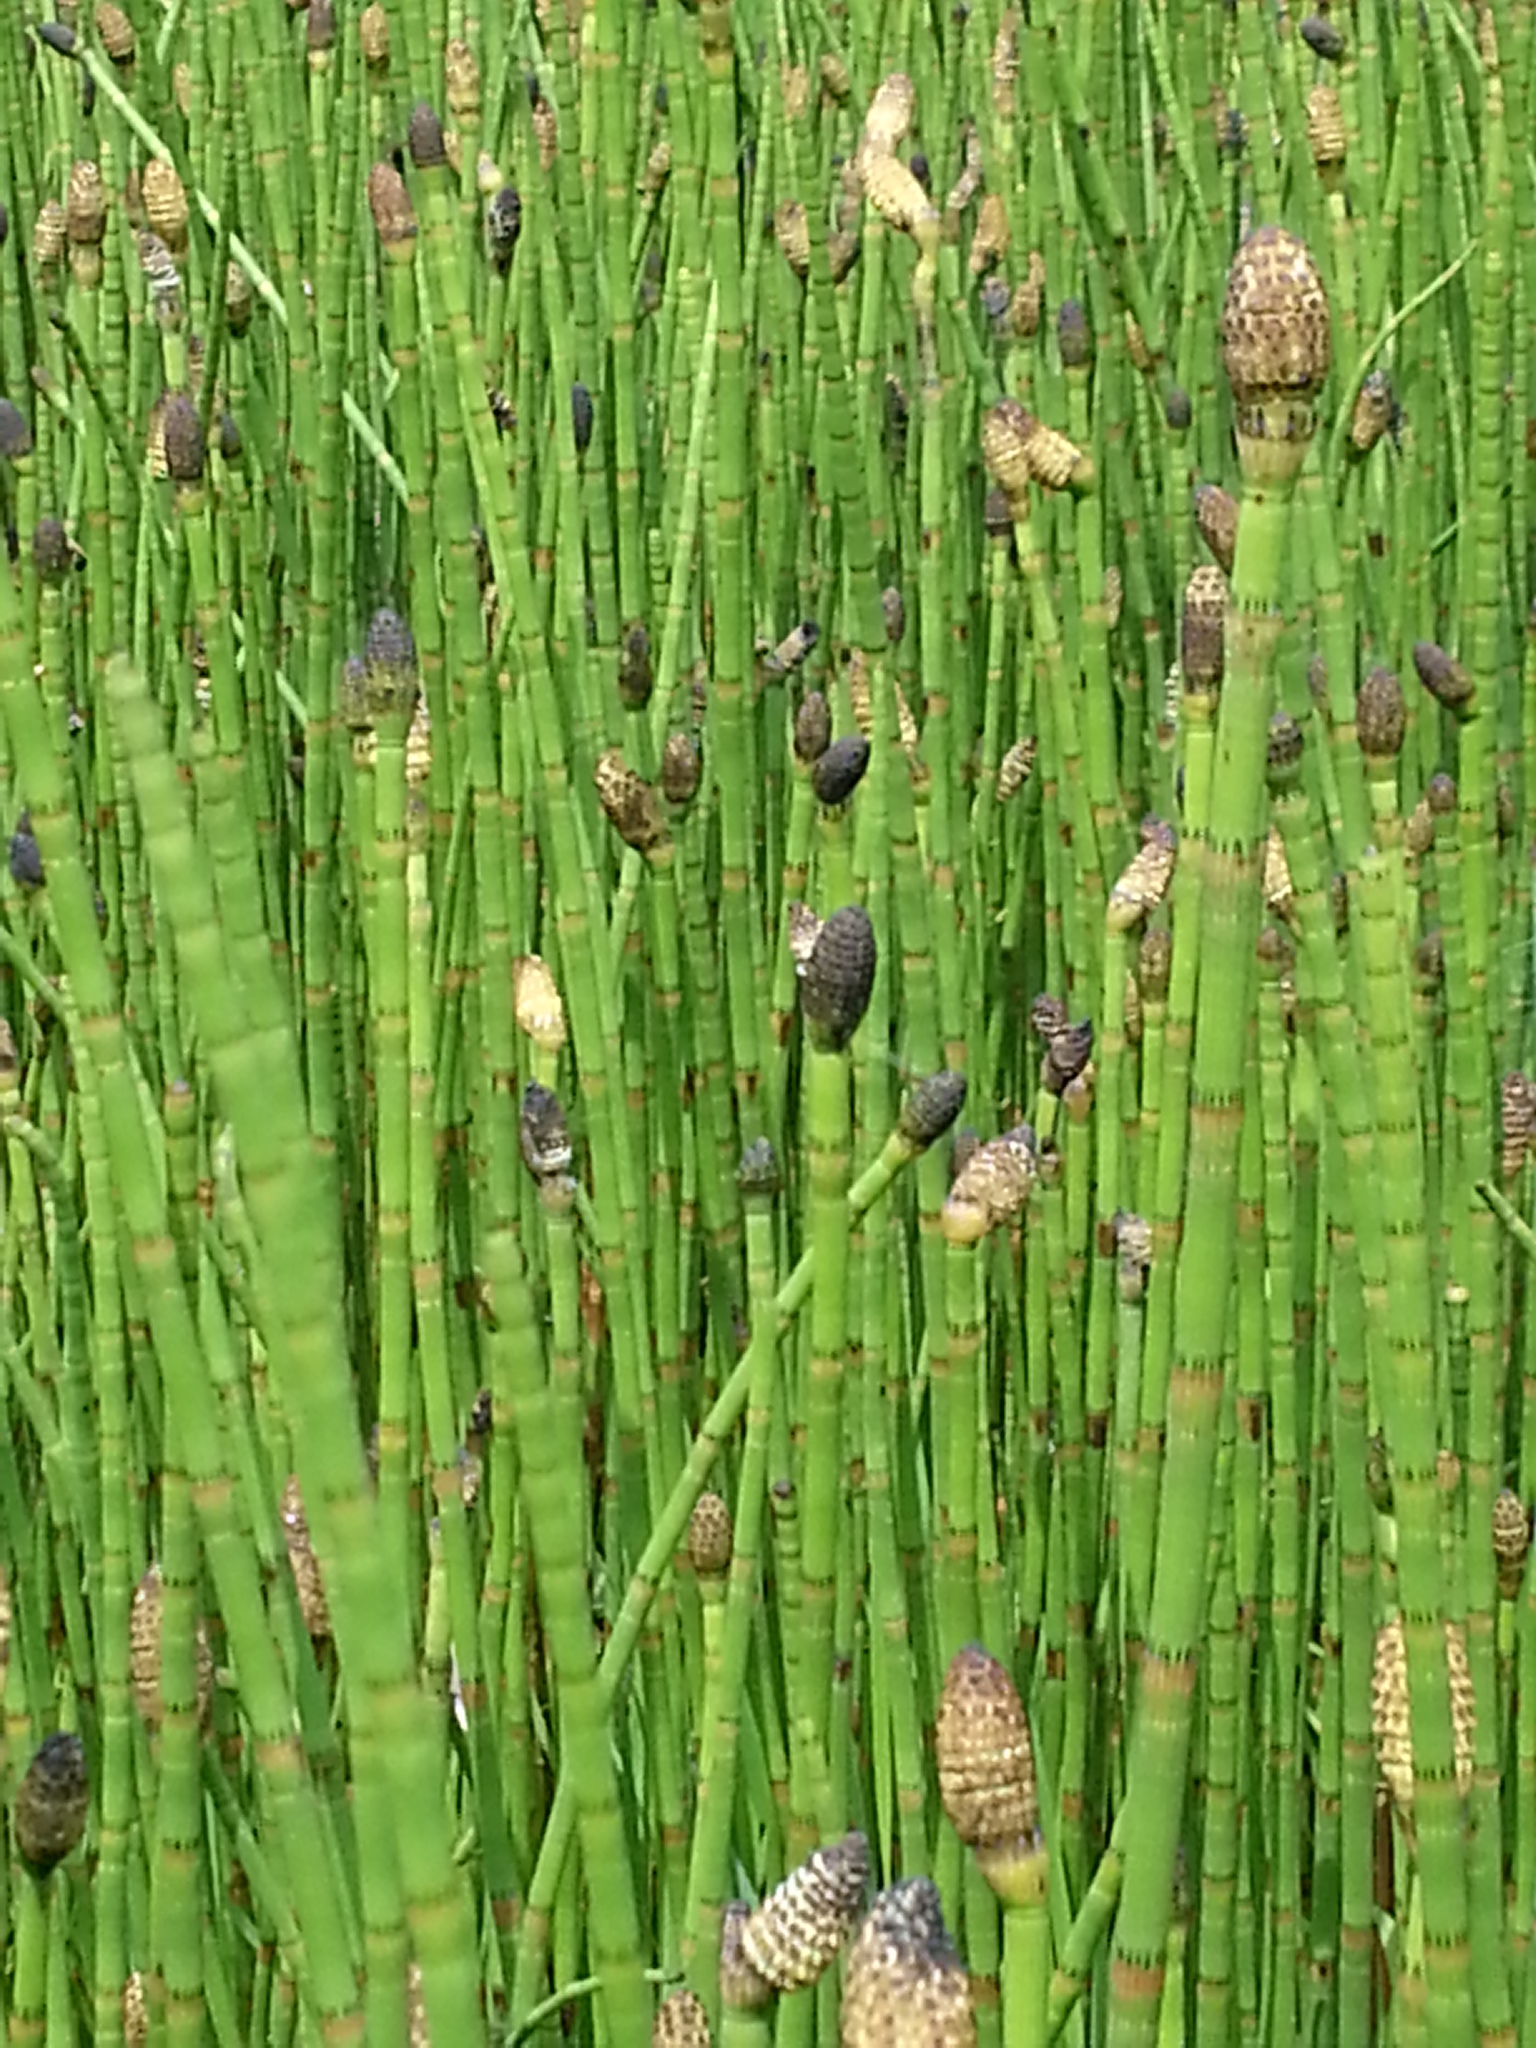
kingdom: Plantae
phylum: Tracheophyta
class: Polypodiopsida
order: Equisetales
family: Equisetaceae
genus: Equisetum
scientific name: Equisetum fluviatile
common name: Water horsetail
